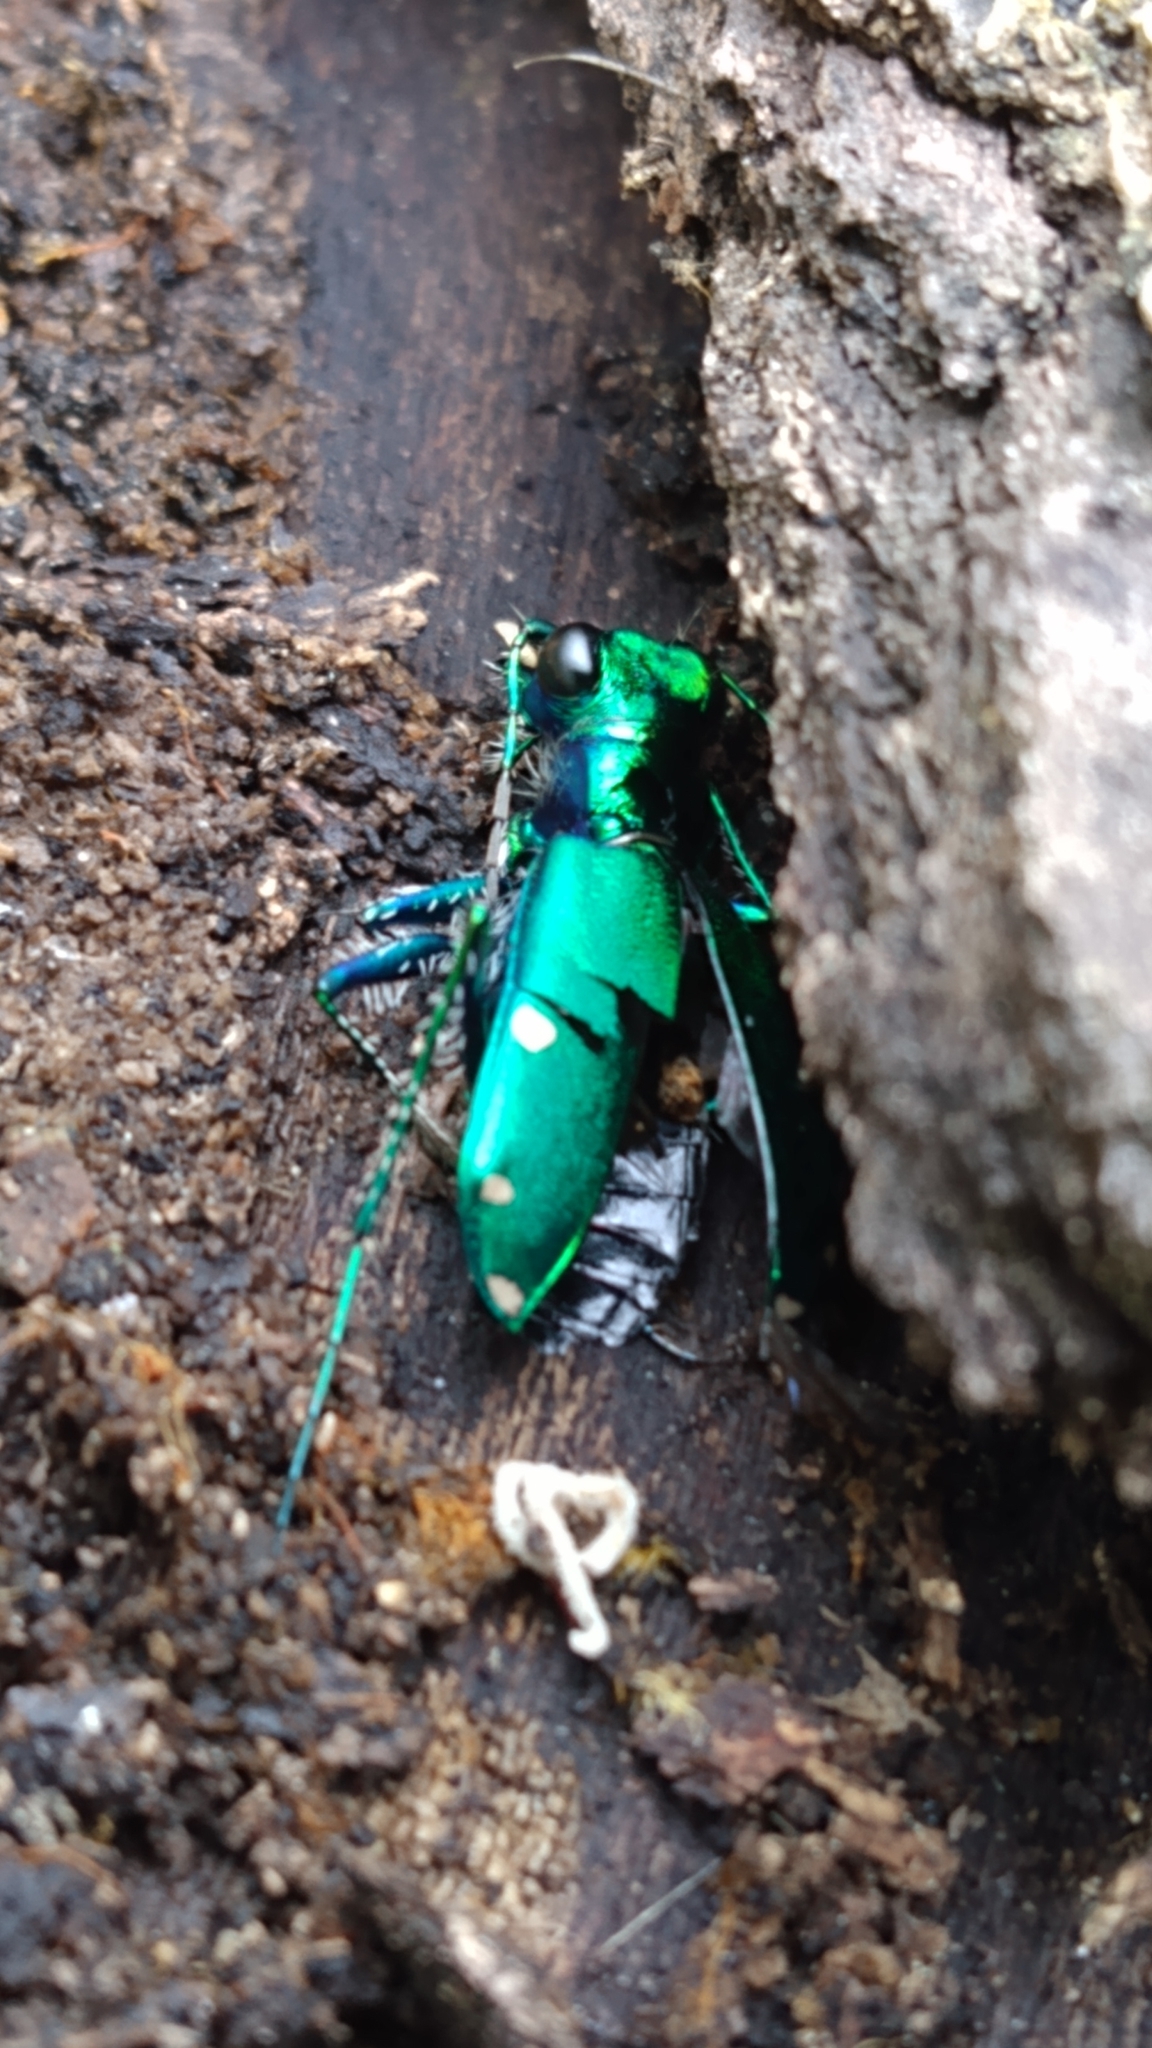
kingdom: Animalia
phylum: Arthropoda
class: Insecta
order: Coleoptera
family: Carabidae
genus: Cicindela
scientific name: Cicindela sexguttata
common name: Six-spotted tiger beetle
